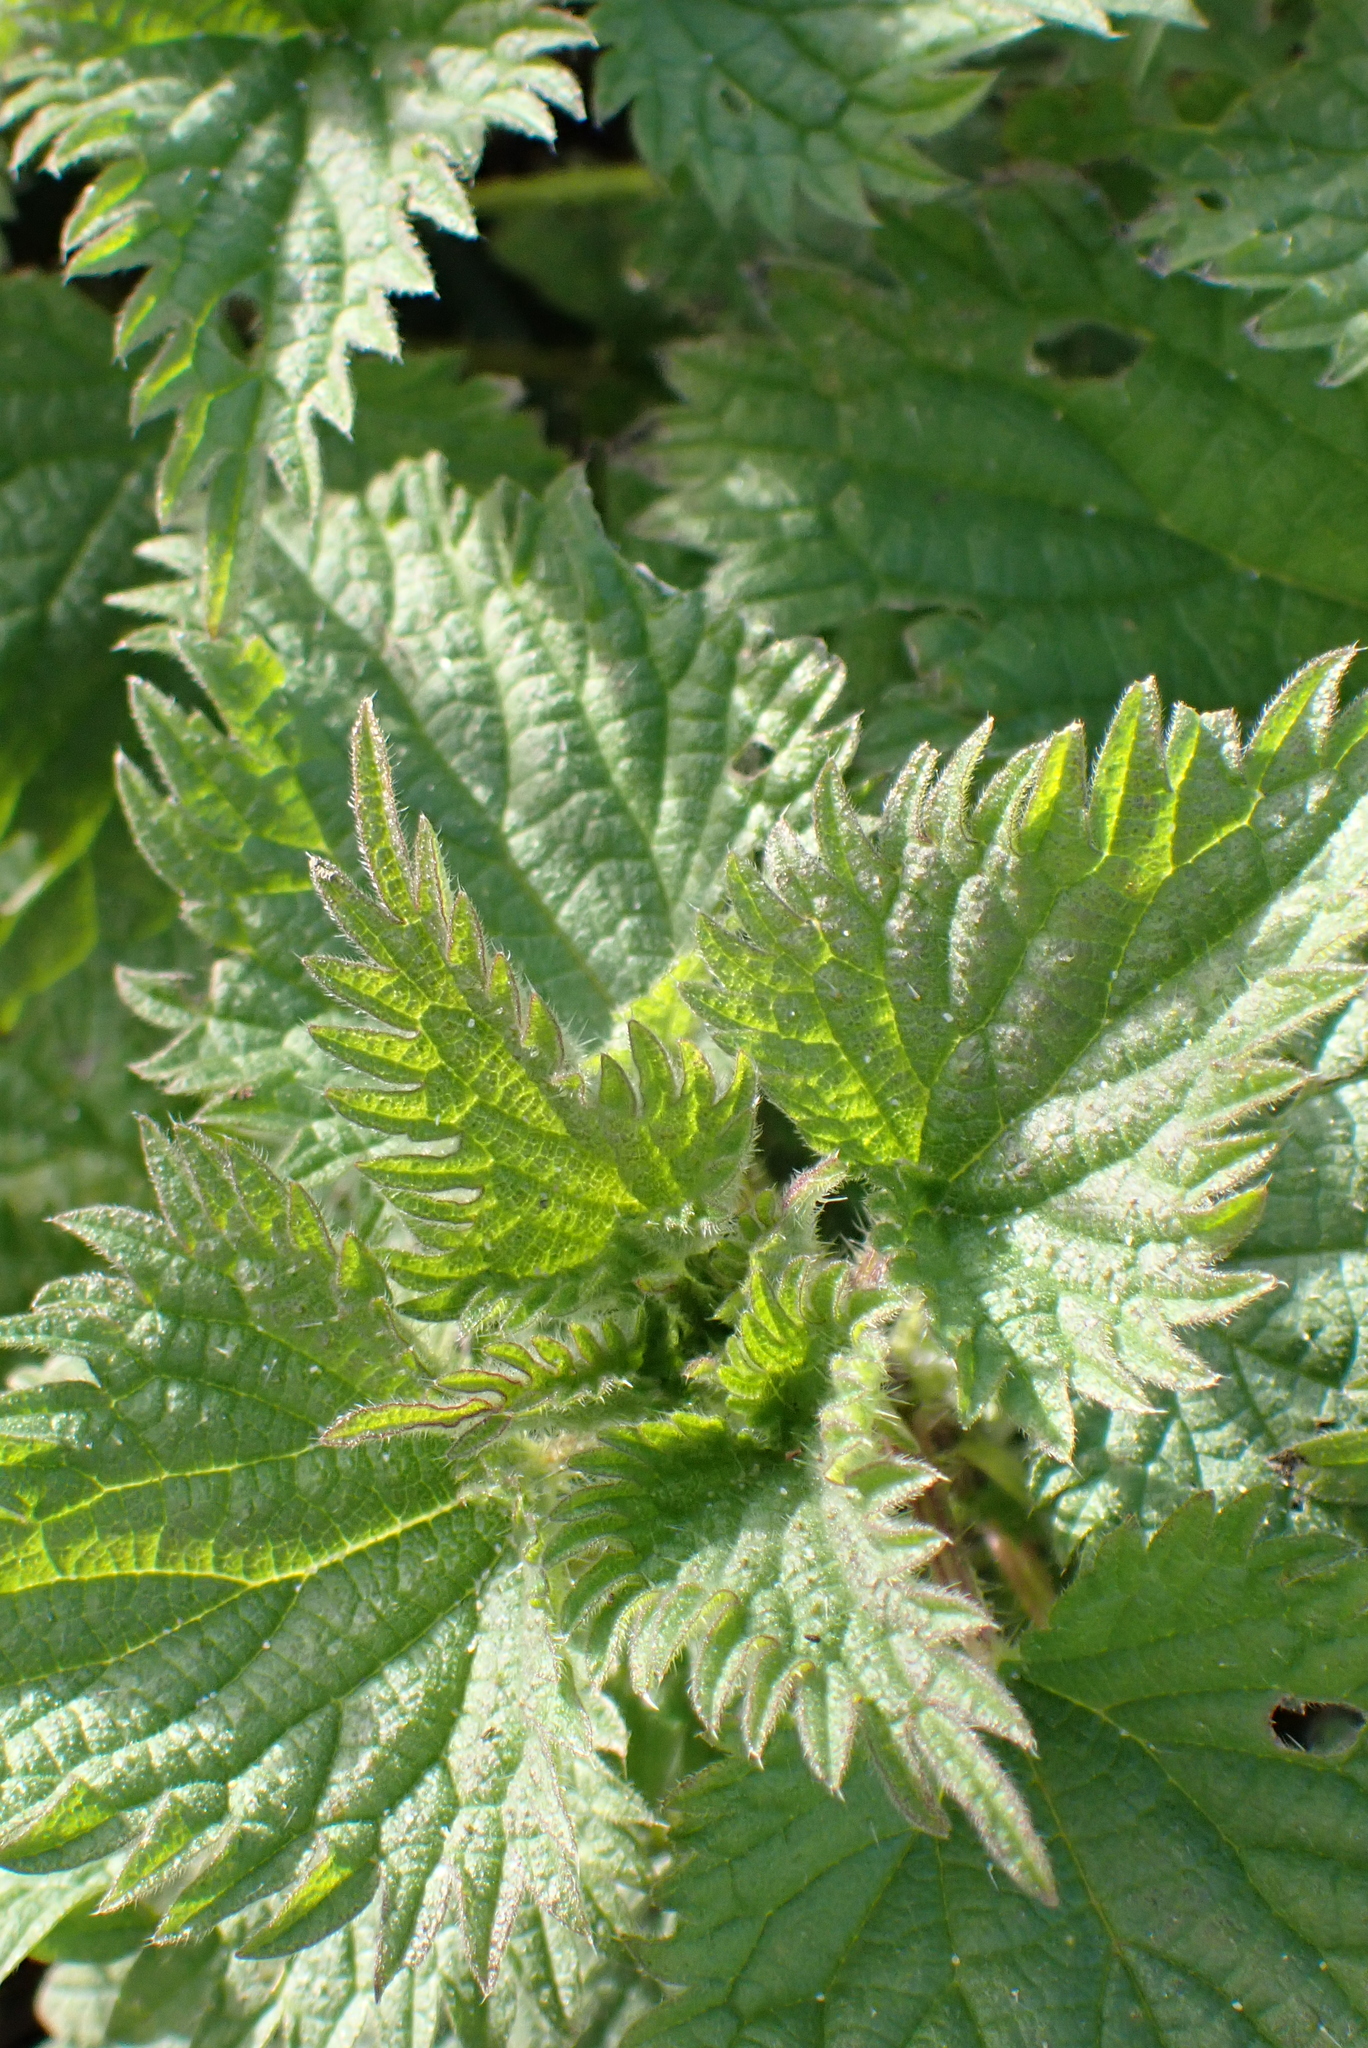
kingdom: Plantae
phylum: Tracheophyta
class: Magnoliopsida
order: Rosales
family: Urticaceae
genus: Urtica
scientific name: Urtica dioica
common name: Common nettle
